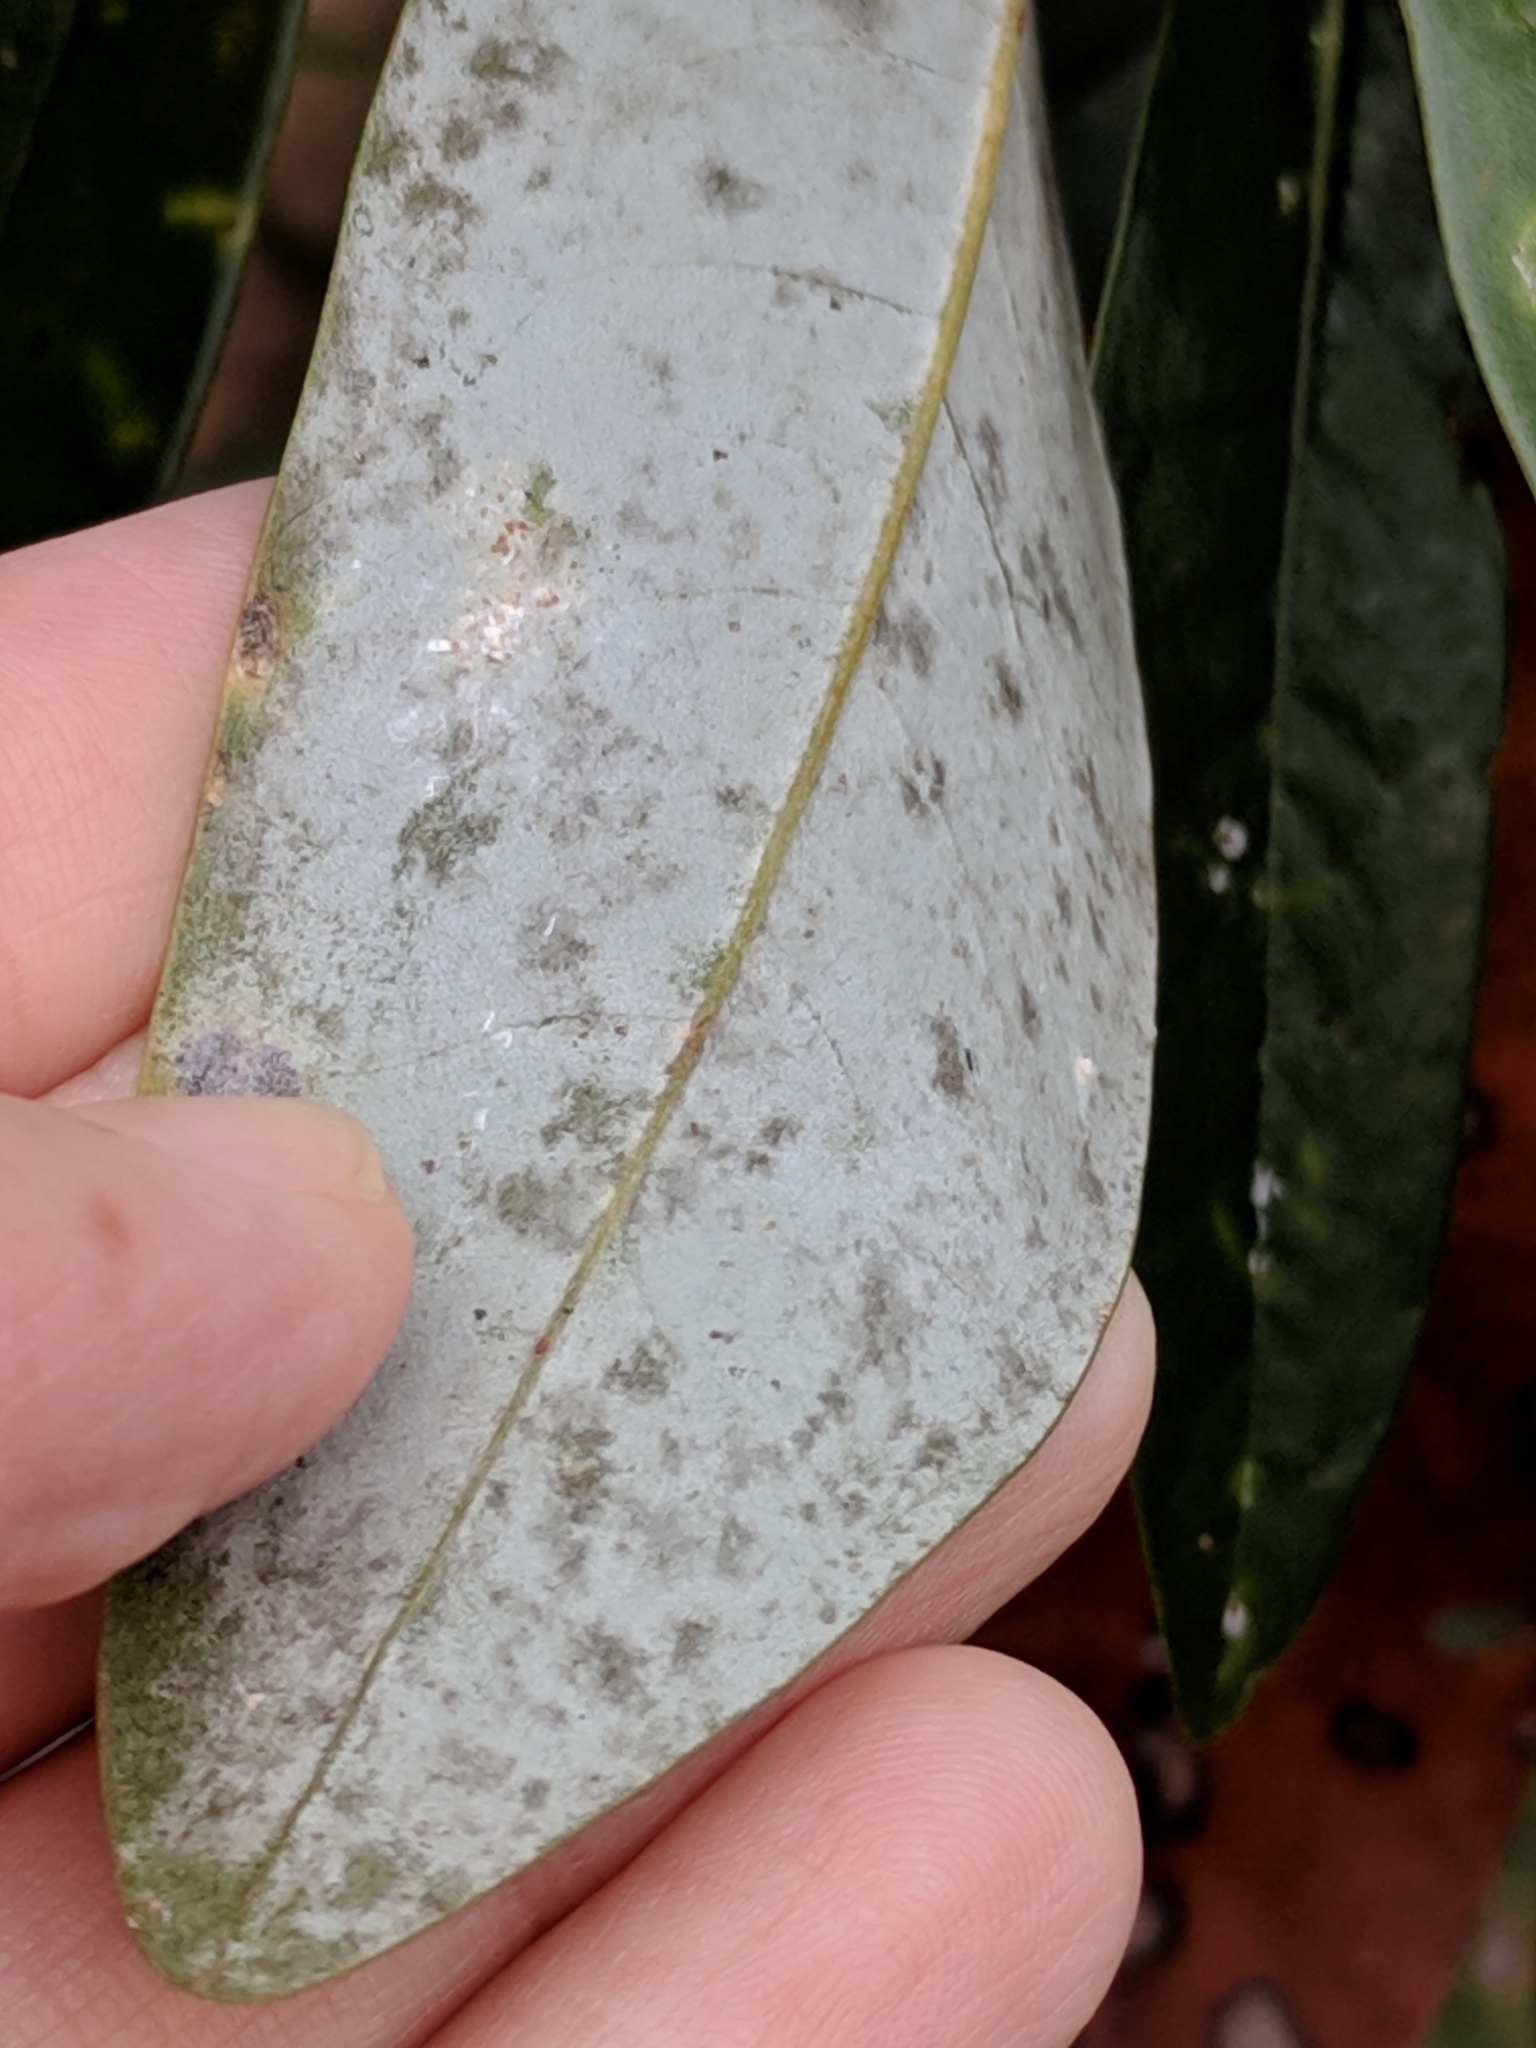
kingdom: Plantae
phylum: Tracheophyta
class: Magnoliopsida
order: Magnoliales
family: Magnoliaceae
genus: Magnolia
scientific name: Magnolia virginiana
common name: Swamp bay
